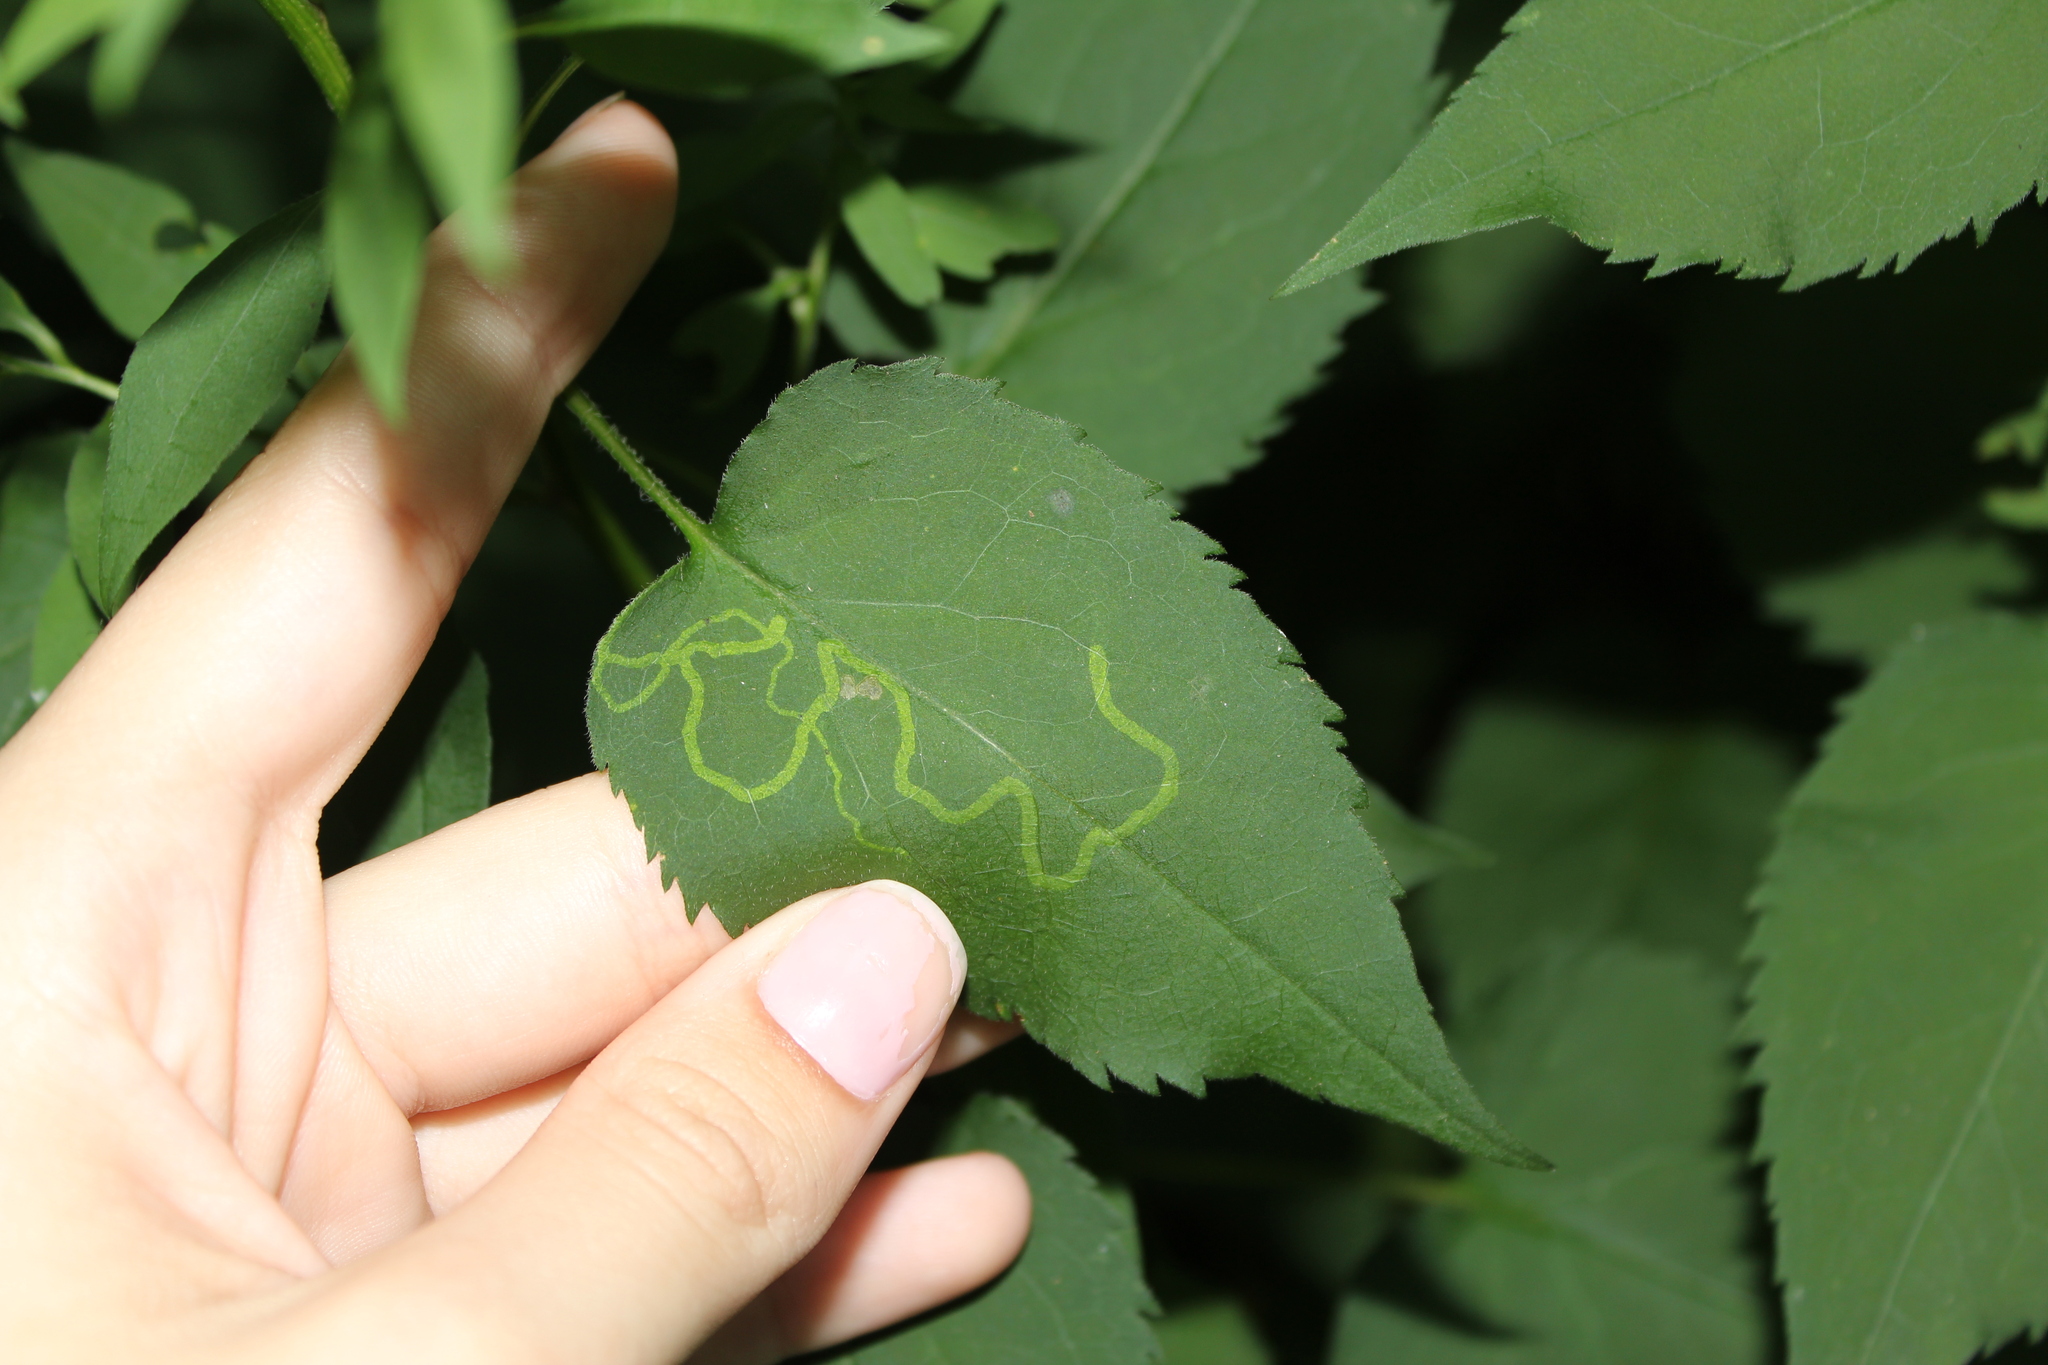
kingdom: Animalia
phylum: Arthropoda
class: Insecta
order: Diptera
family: Agromyzidae
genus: Ophiomyia
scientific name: Ophiomyia parda
